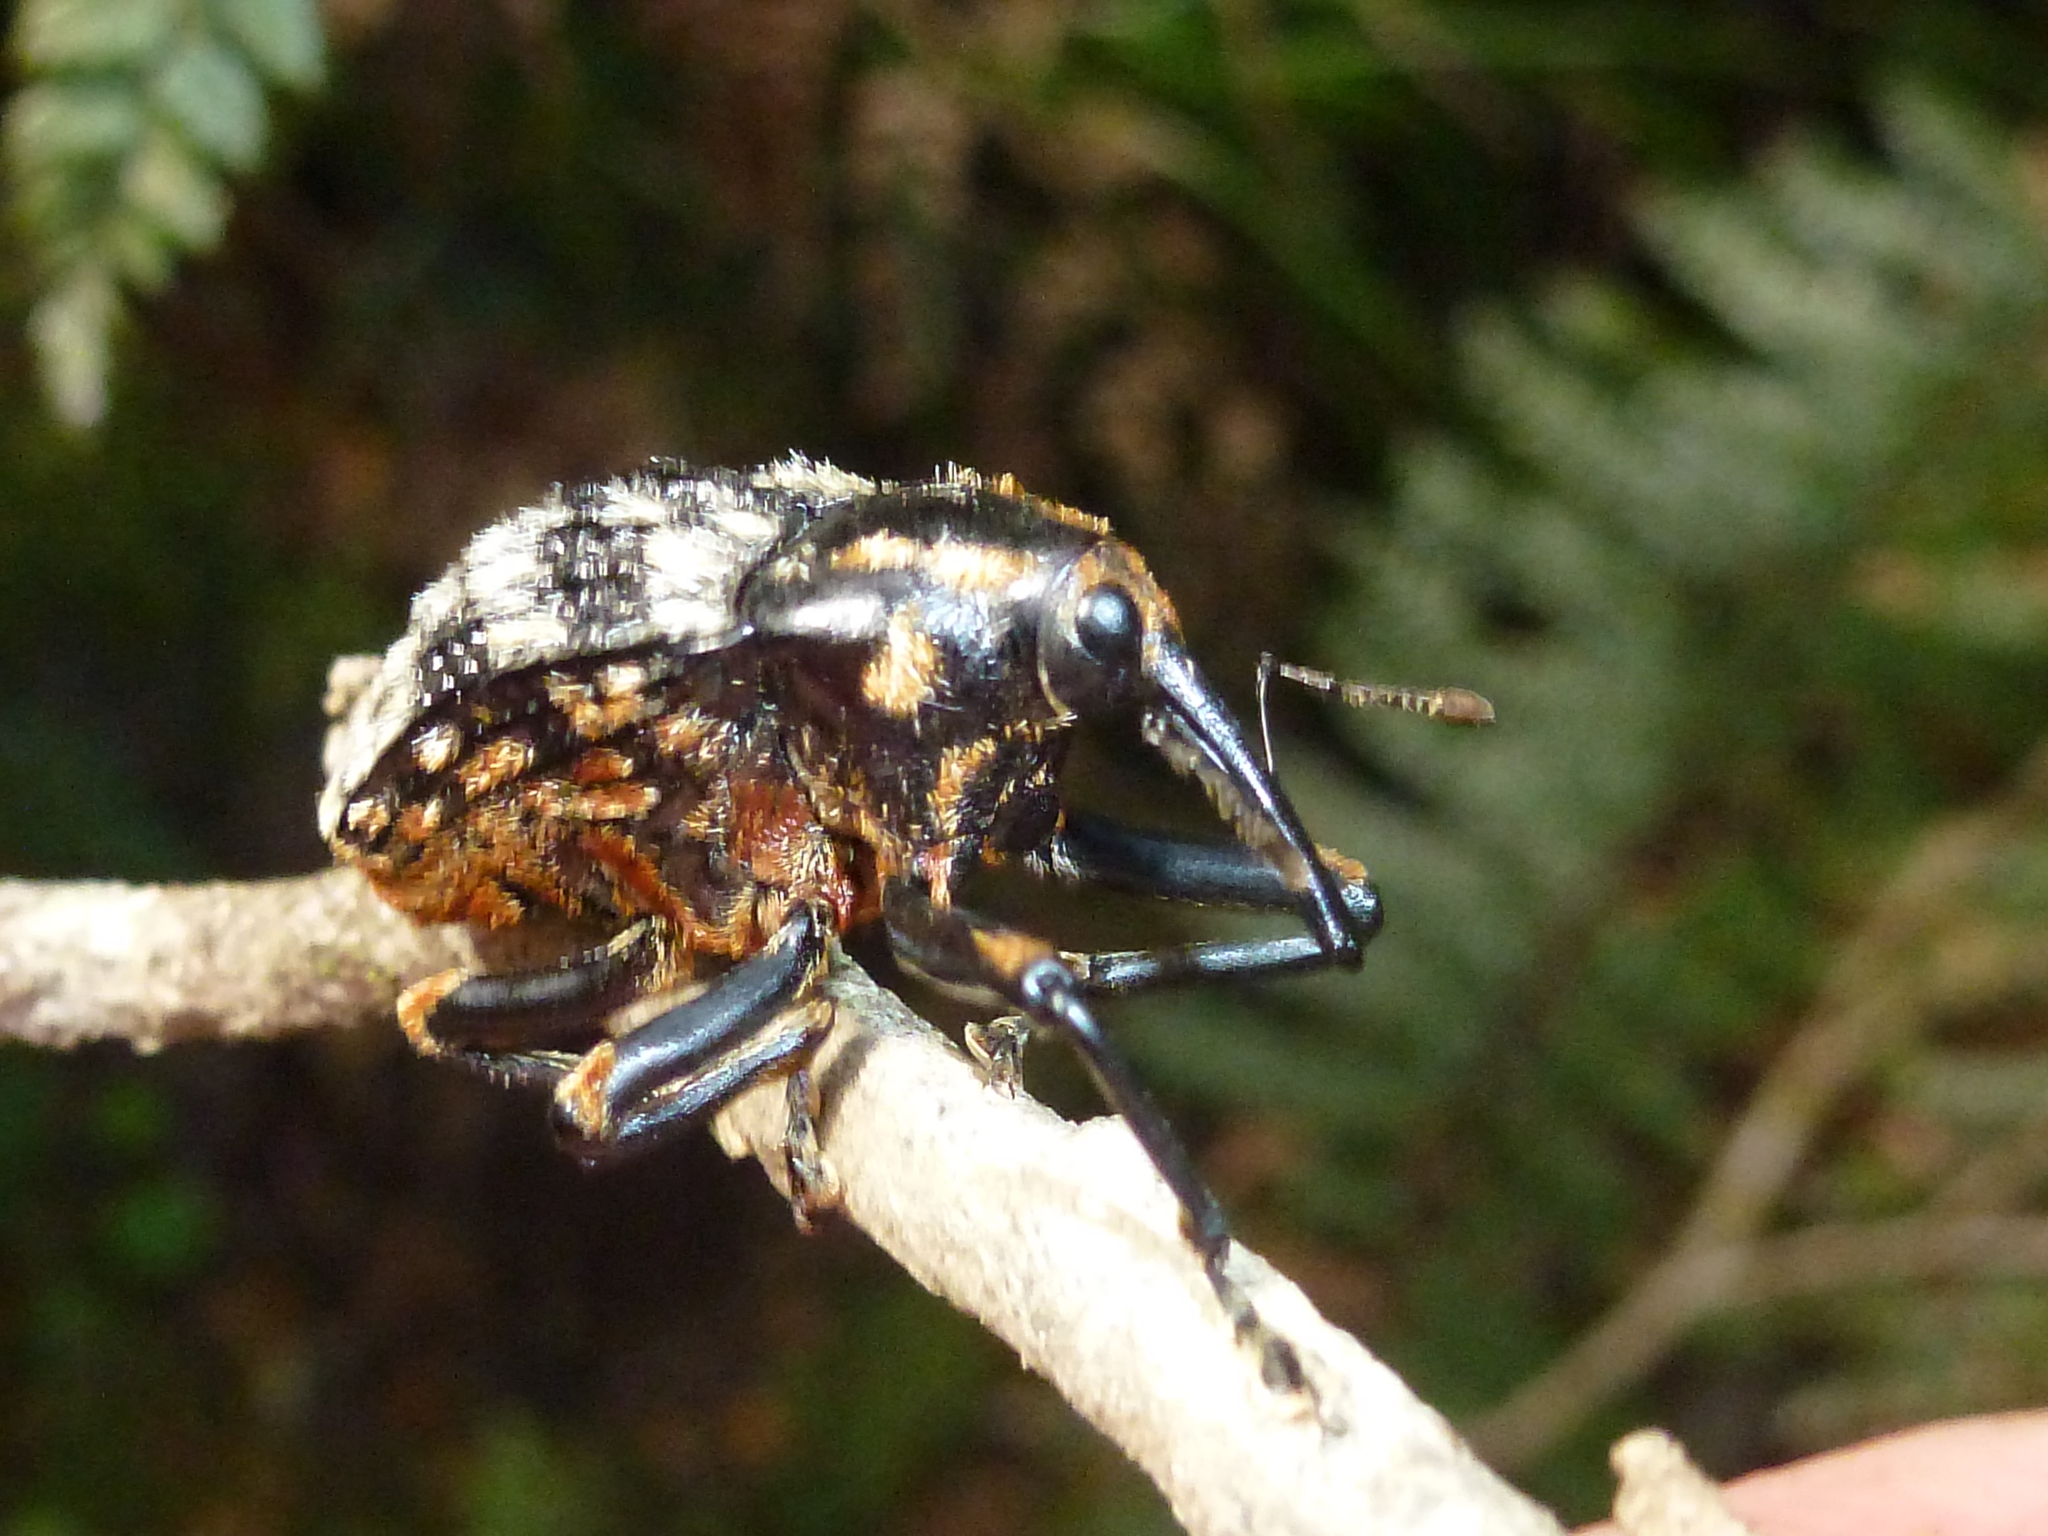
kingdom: Animalia
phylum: Arthropoda
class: Insecta
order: Coleoptera
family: Curculionidae
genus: Rhynchodes
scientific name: Rhynchodes ursus
